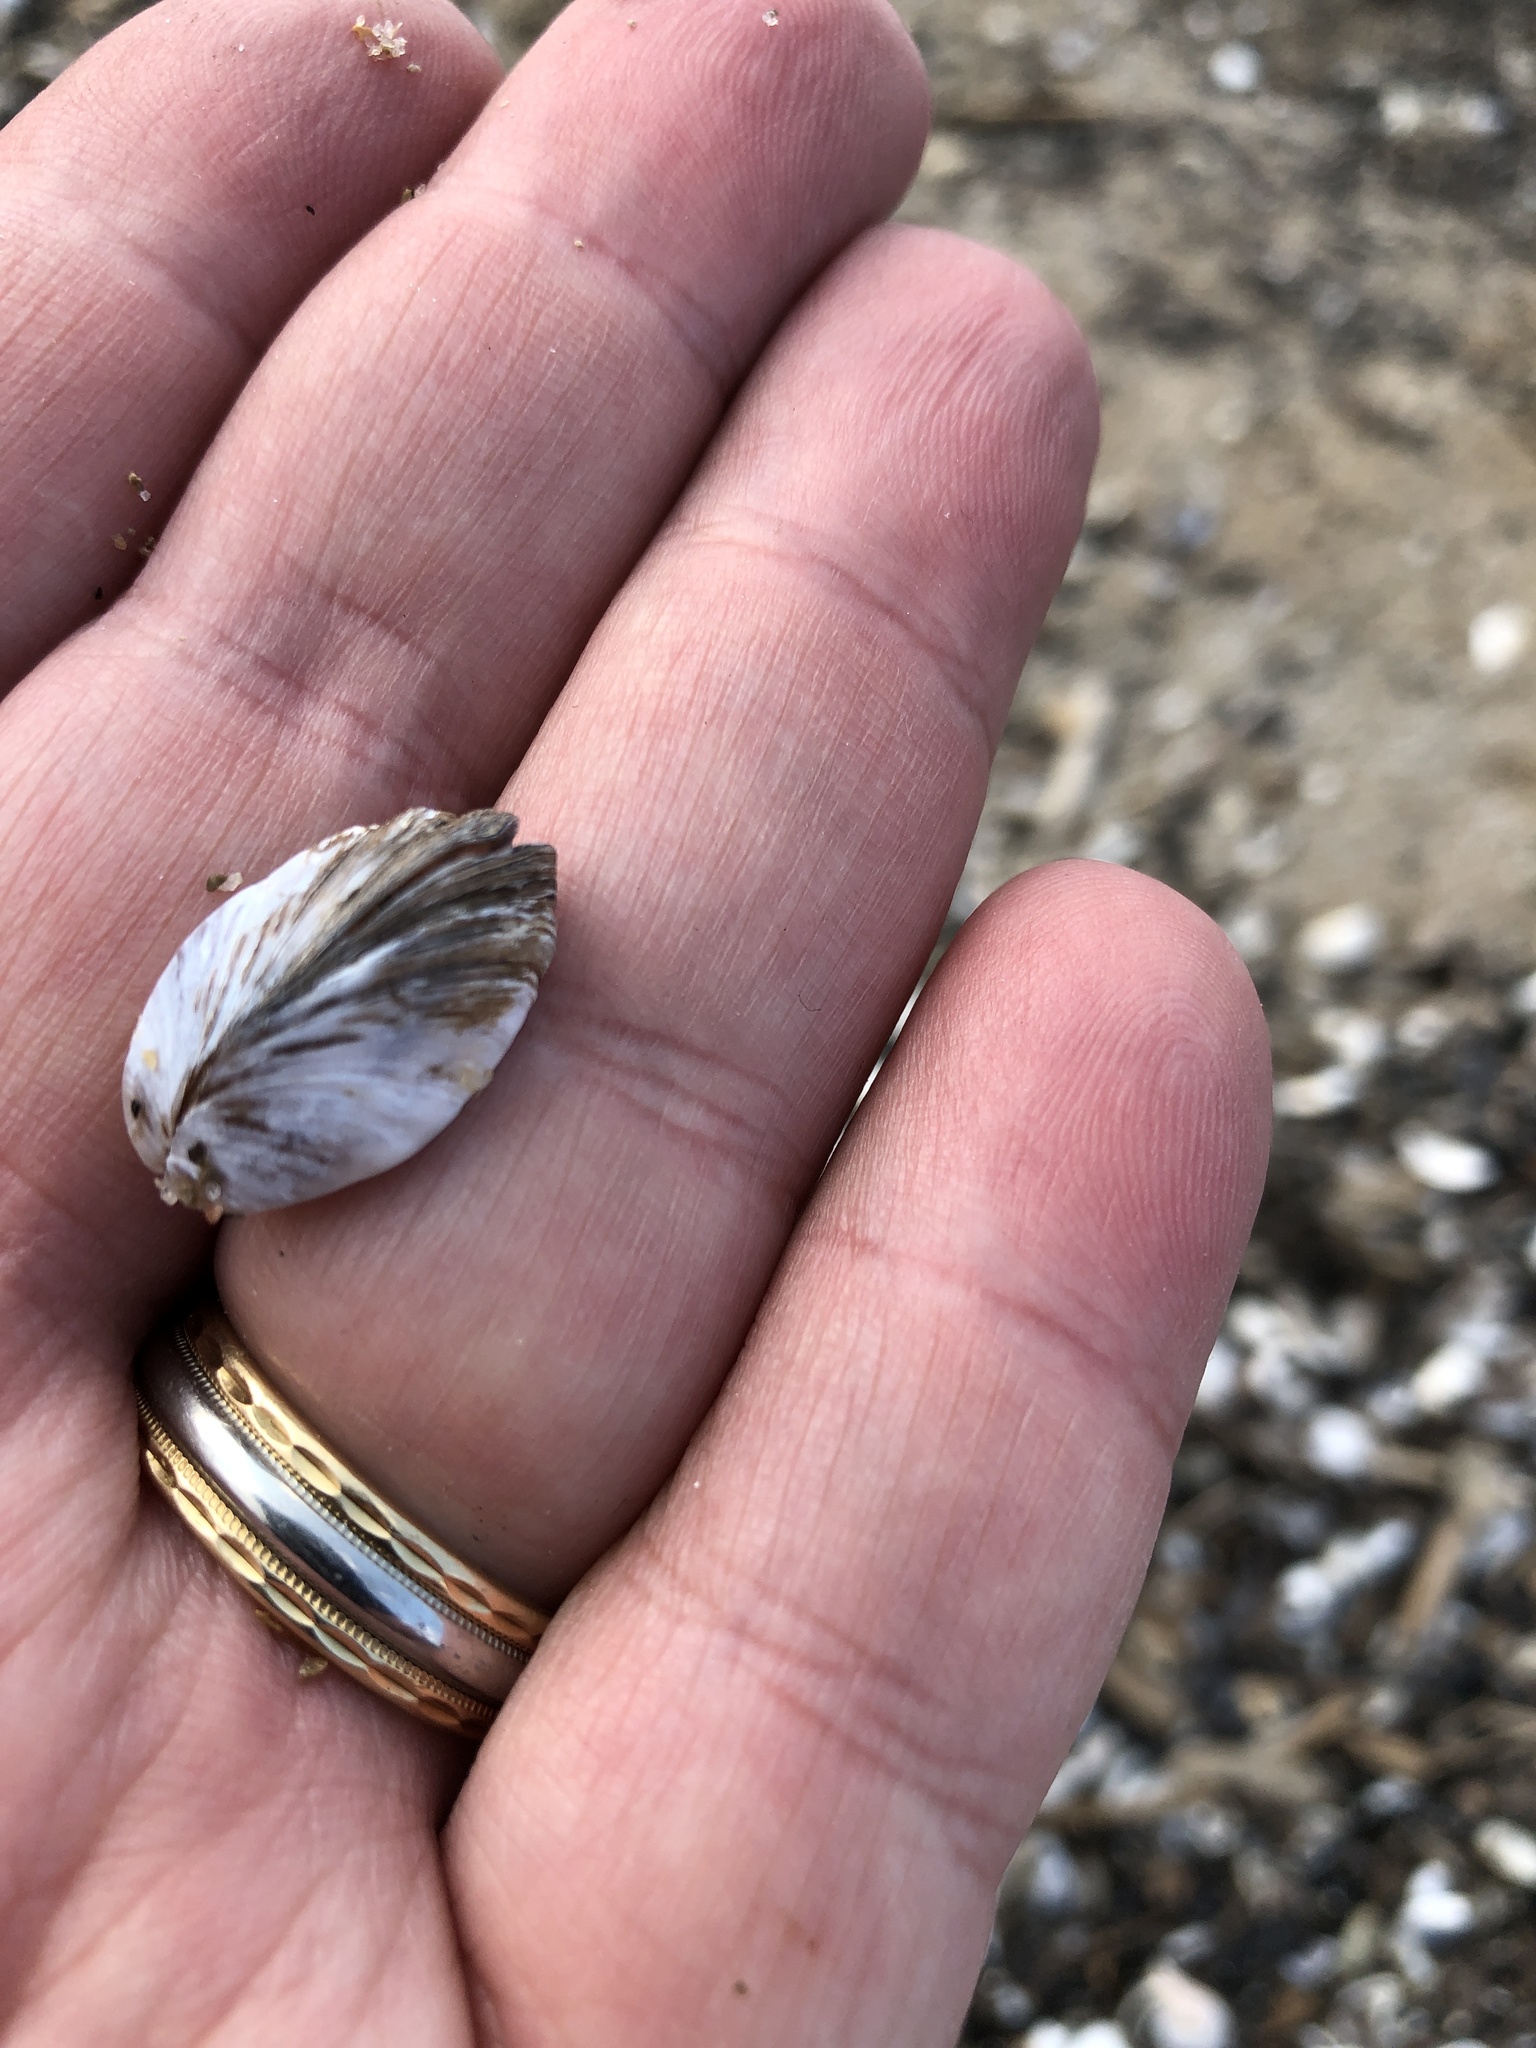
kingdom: Animalia
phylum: Mollusca
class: Bivalvia
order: Myida
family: Dreissenidae
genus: Dreissena
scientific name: Dreissena polymorpha
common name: Zebra mussel
